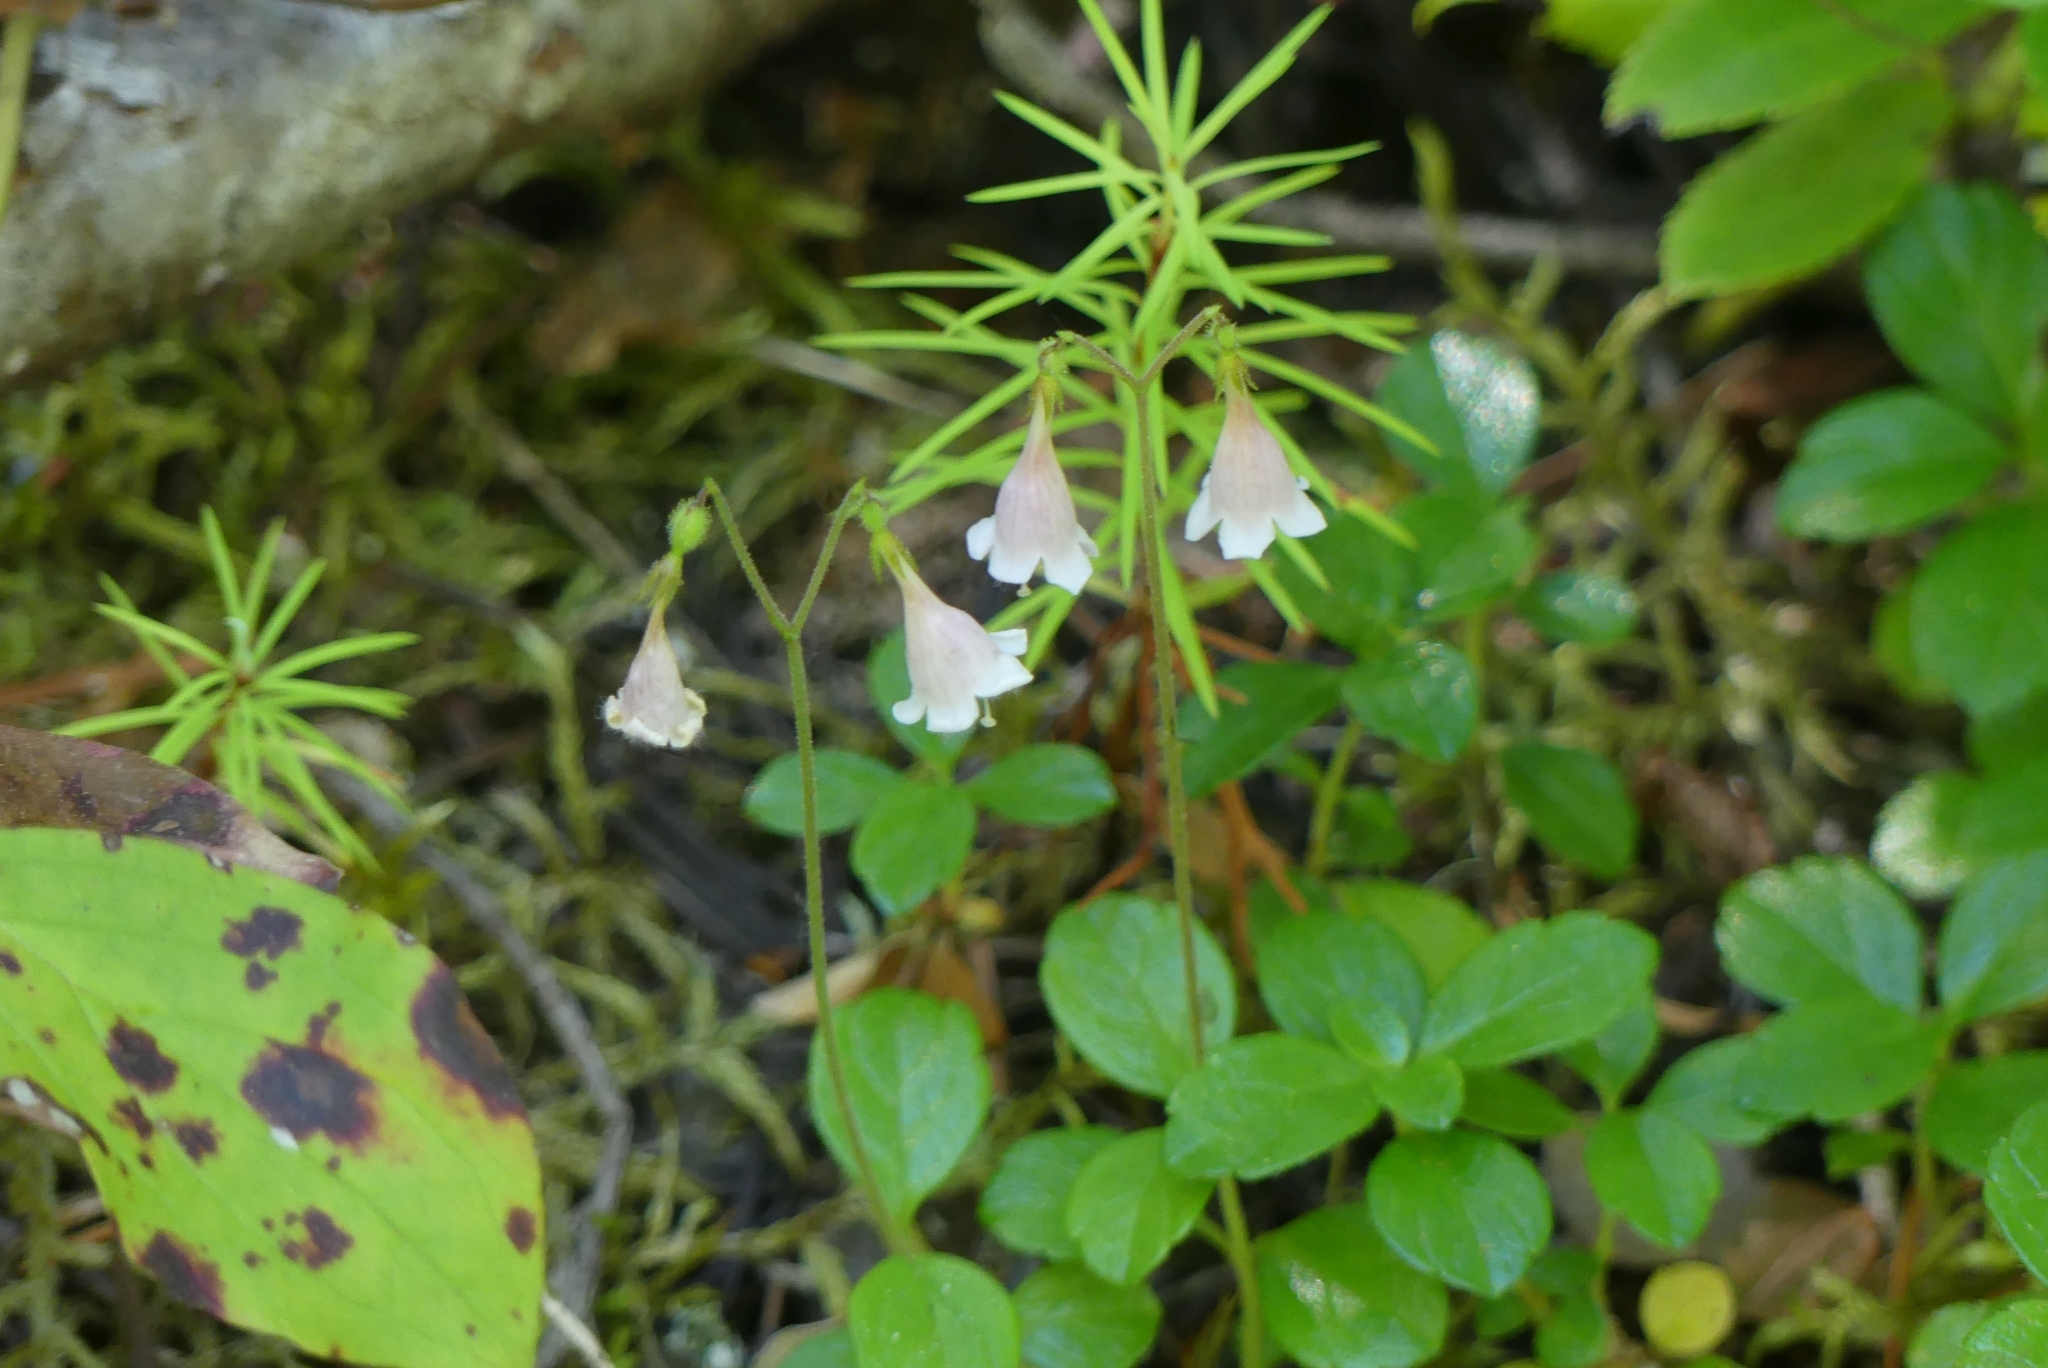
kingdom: Plantae
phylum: Tracheophyta
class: Magnoliopsida
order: Dipsacales
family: Caprifoliaceae
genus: Linnaea
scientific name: Linnaea borealis
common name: Twinflower
